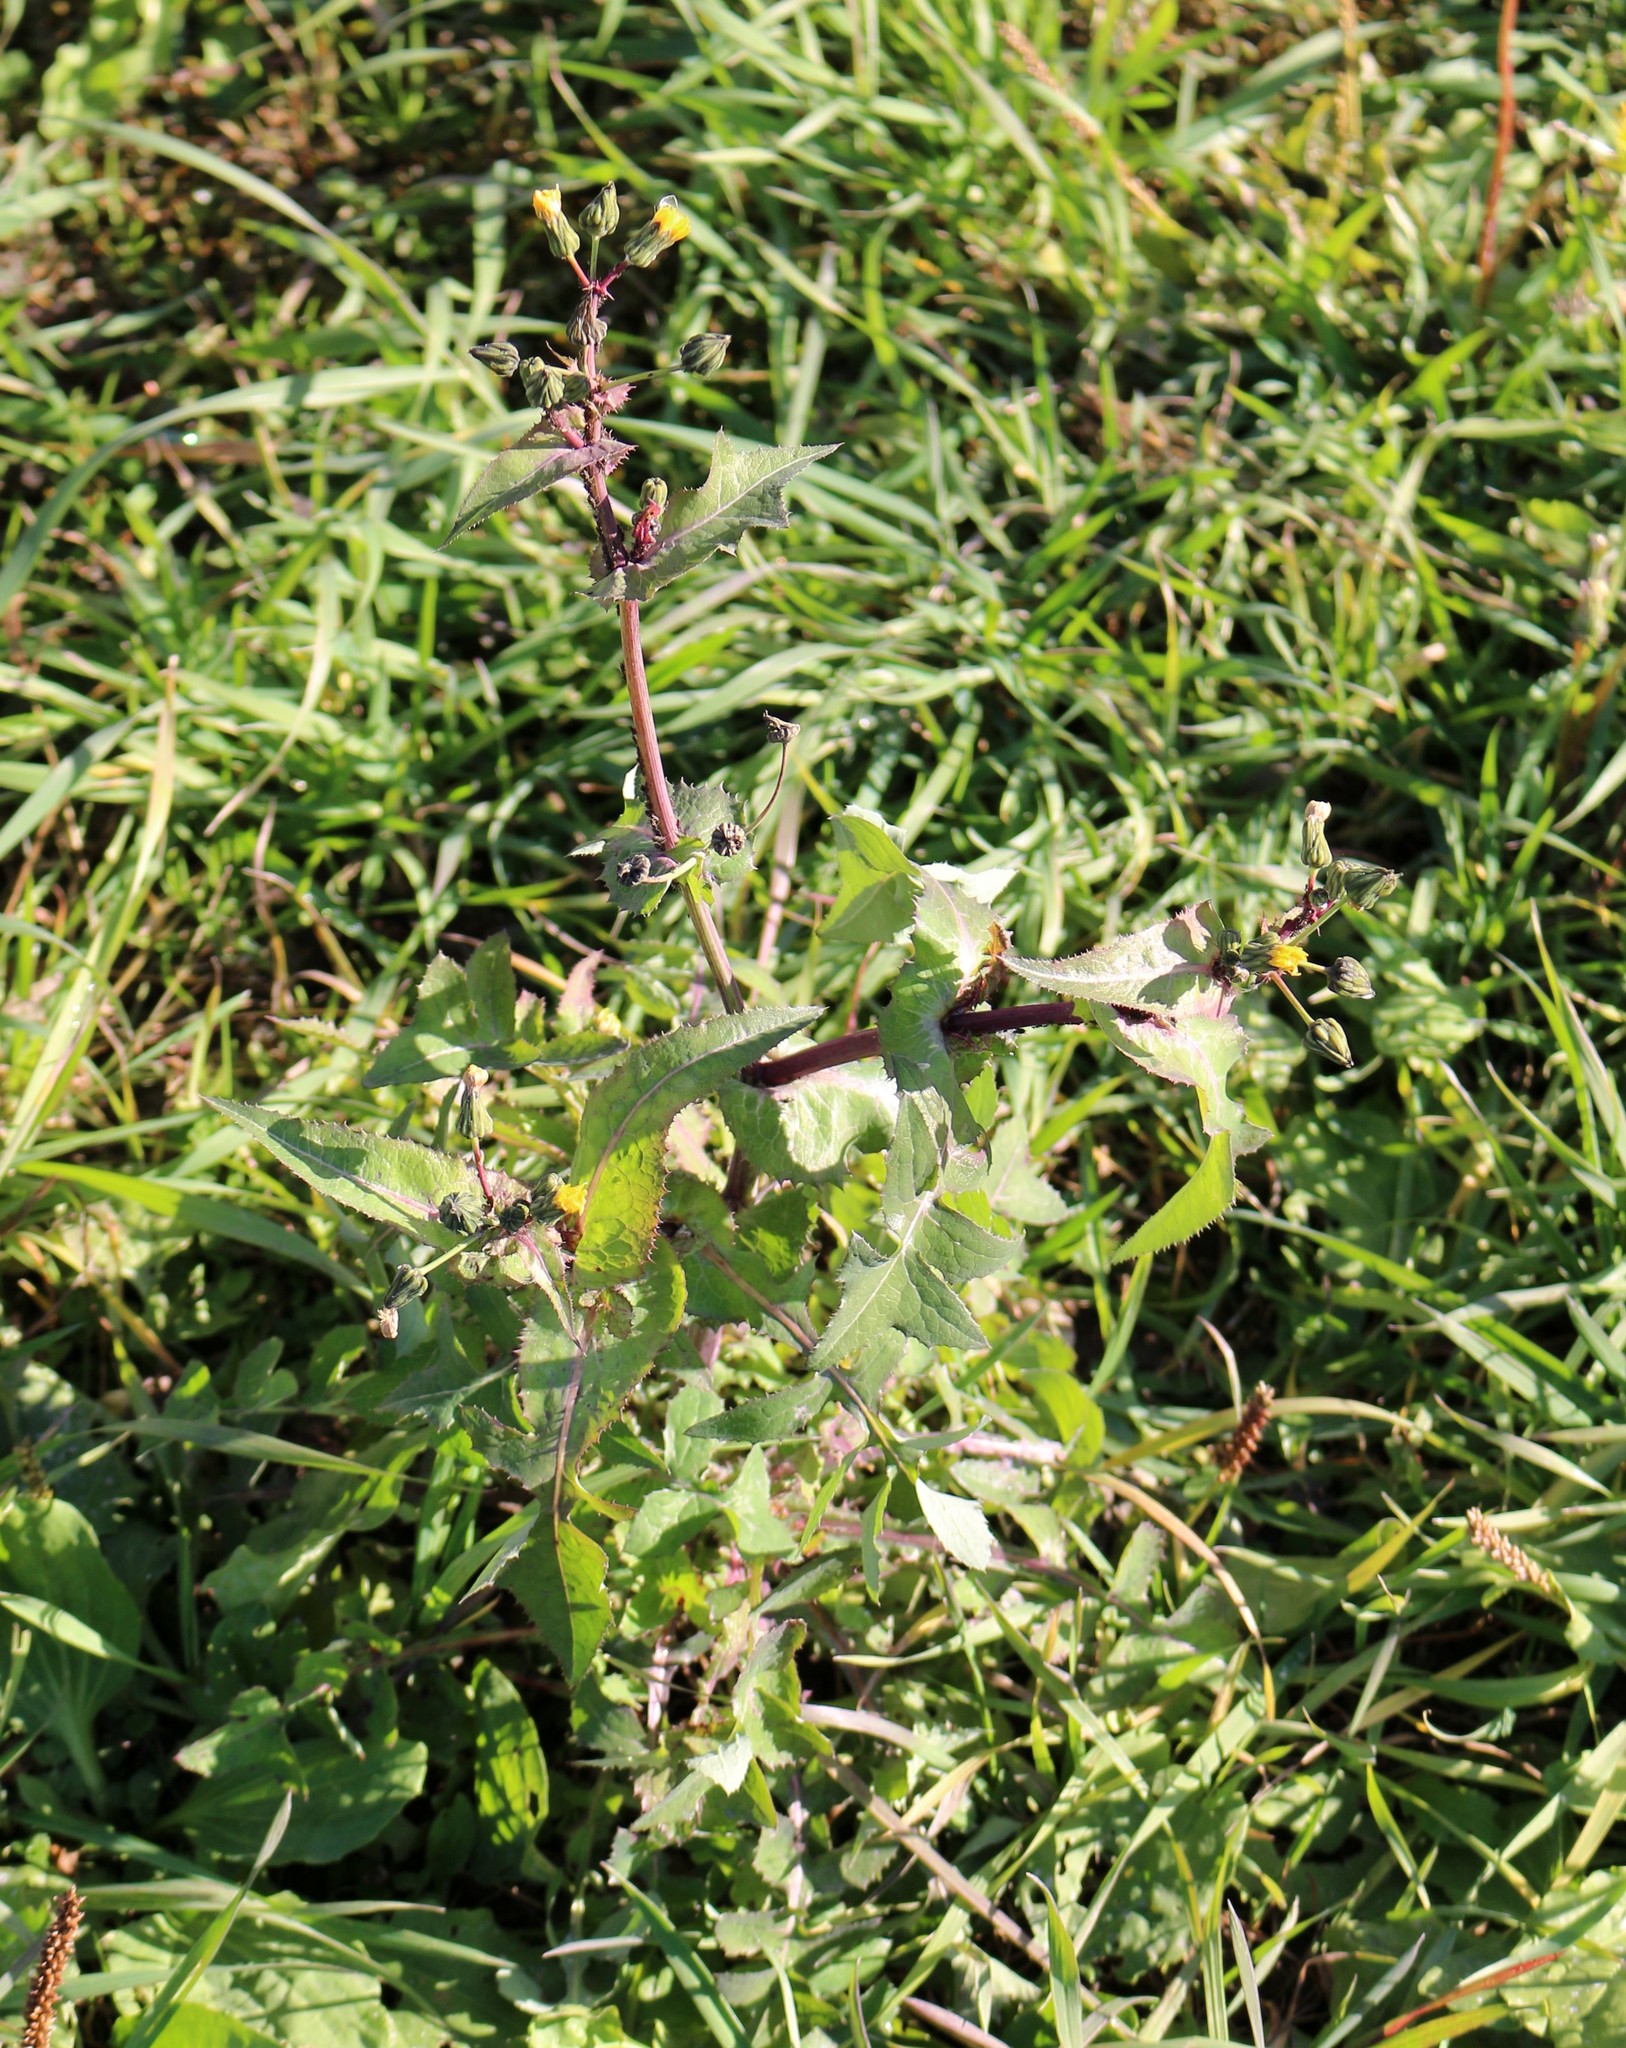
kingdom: Plantae
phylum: Tracheophyta
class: Magnoliopsida
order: Asterales
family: Asteraceae
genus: Sonchus
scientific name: Sonchus oleraceus
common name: Common sowthistle
